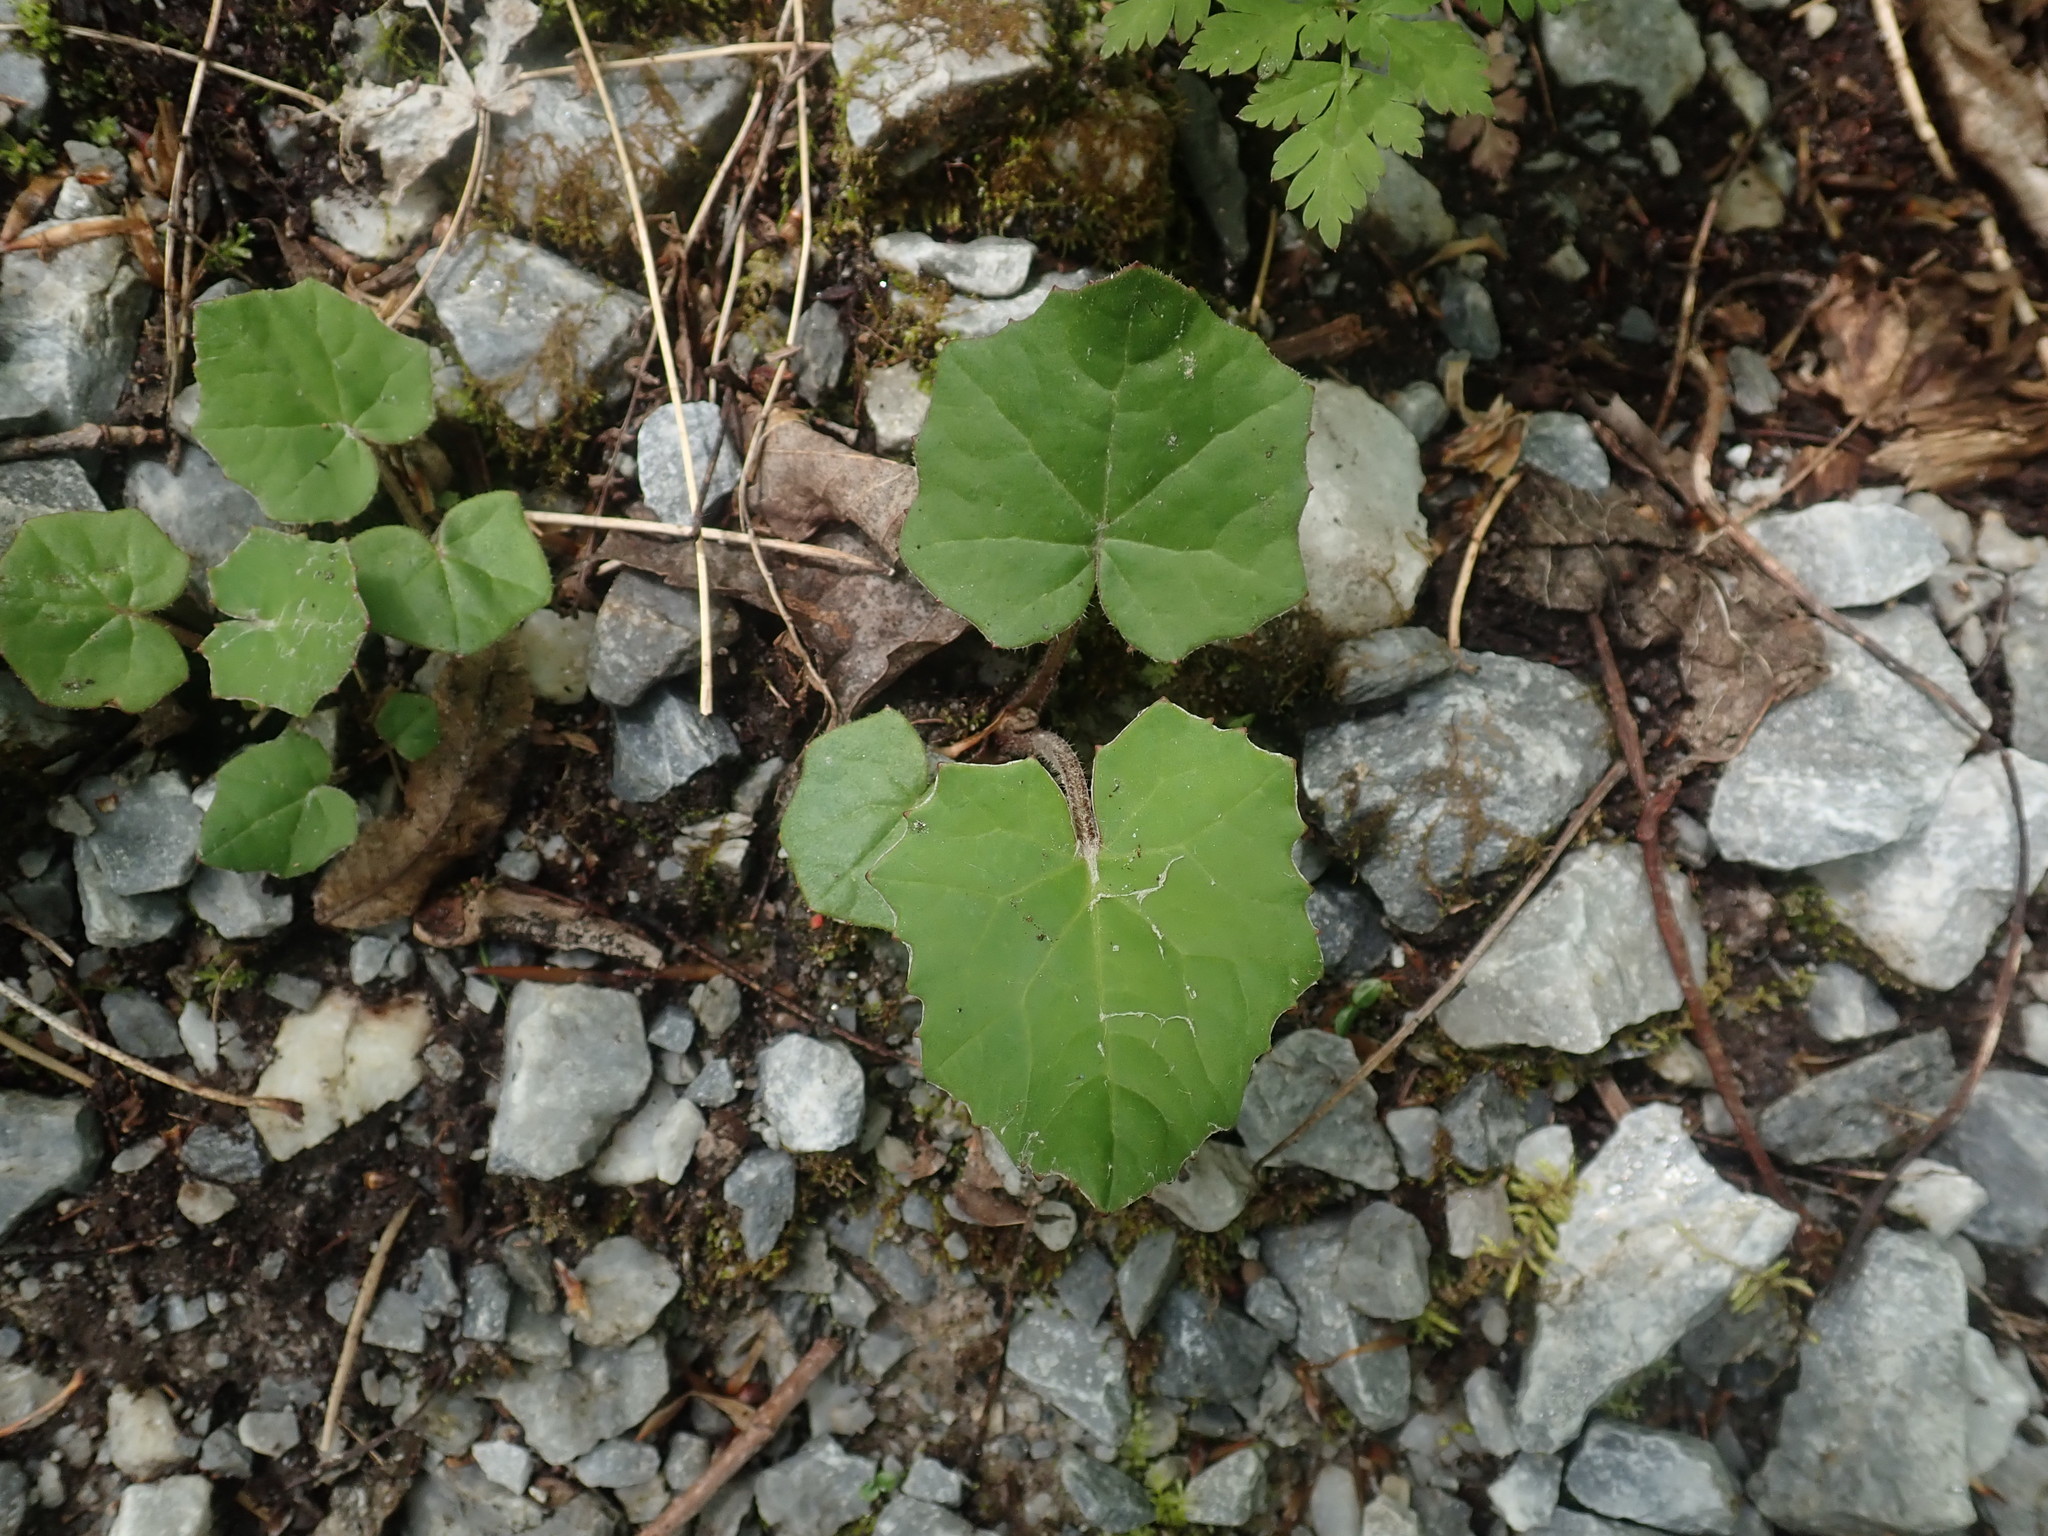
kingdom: Plantae
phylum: Tracheophyta
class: Magnoliopsida
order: Asterales
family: Asteraceae
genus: Tussilago
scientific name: Tussilago farfara
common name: Coltsfoot
